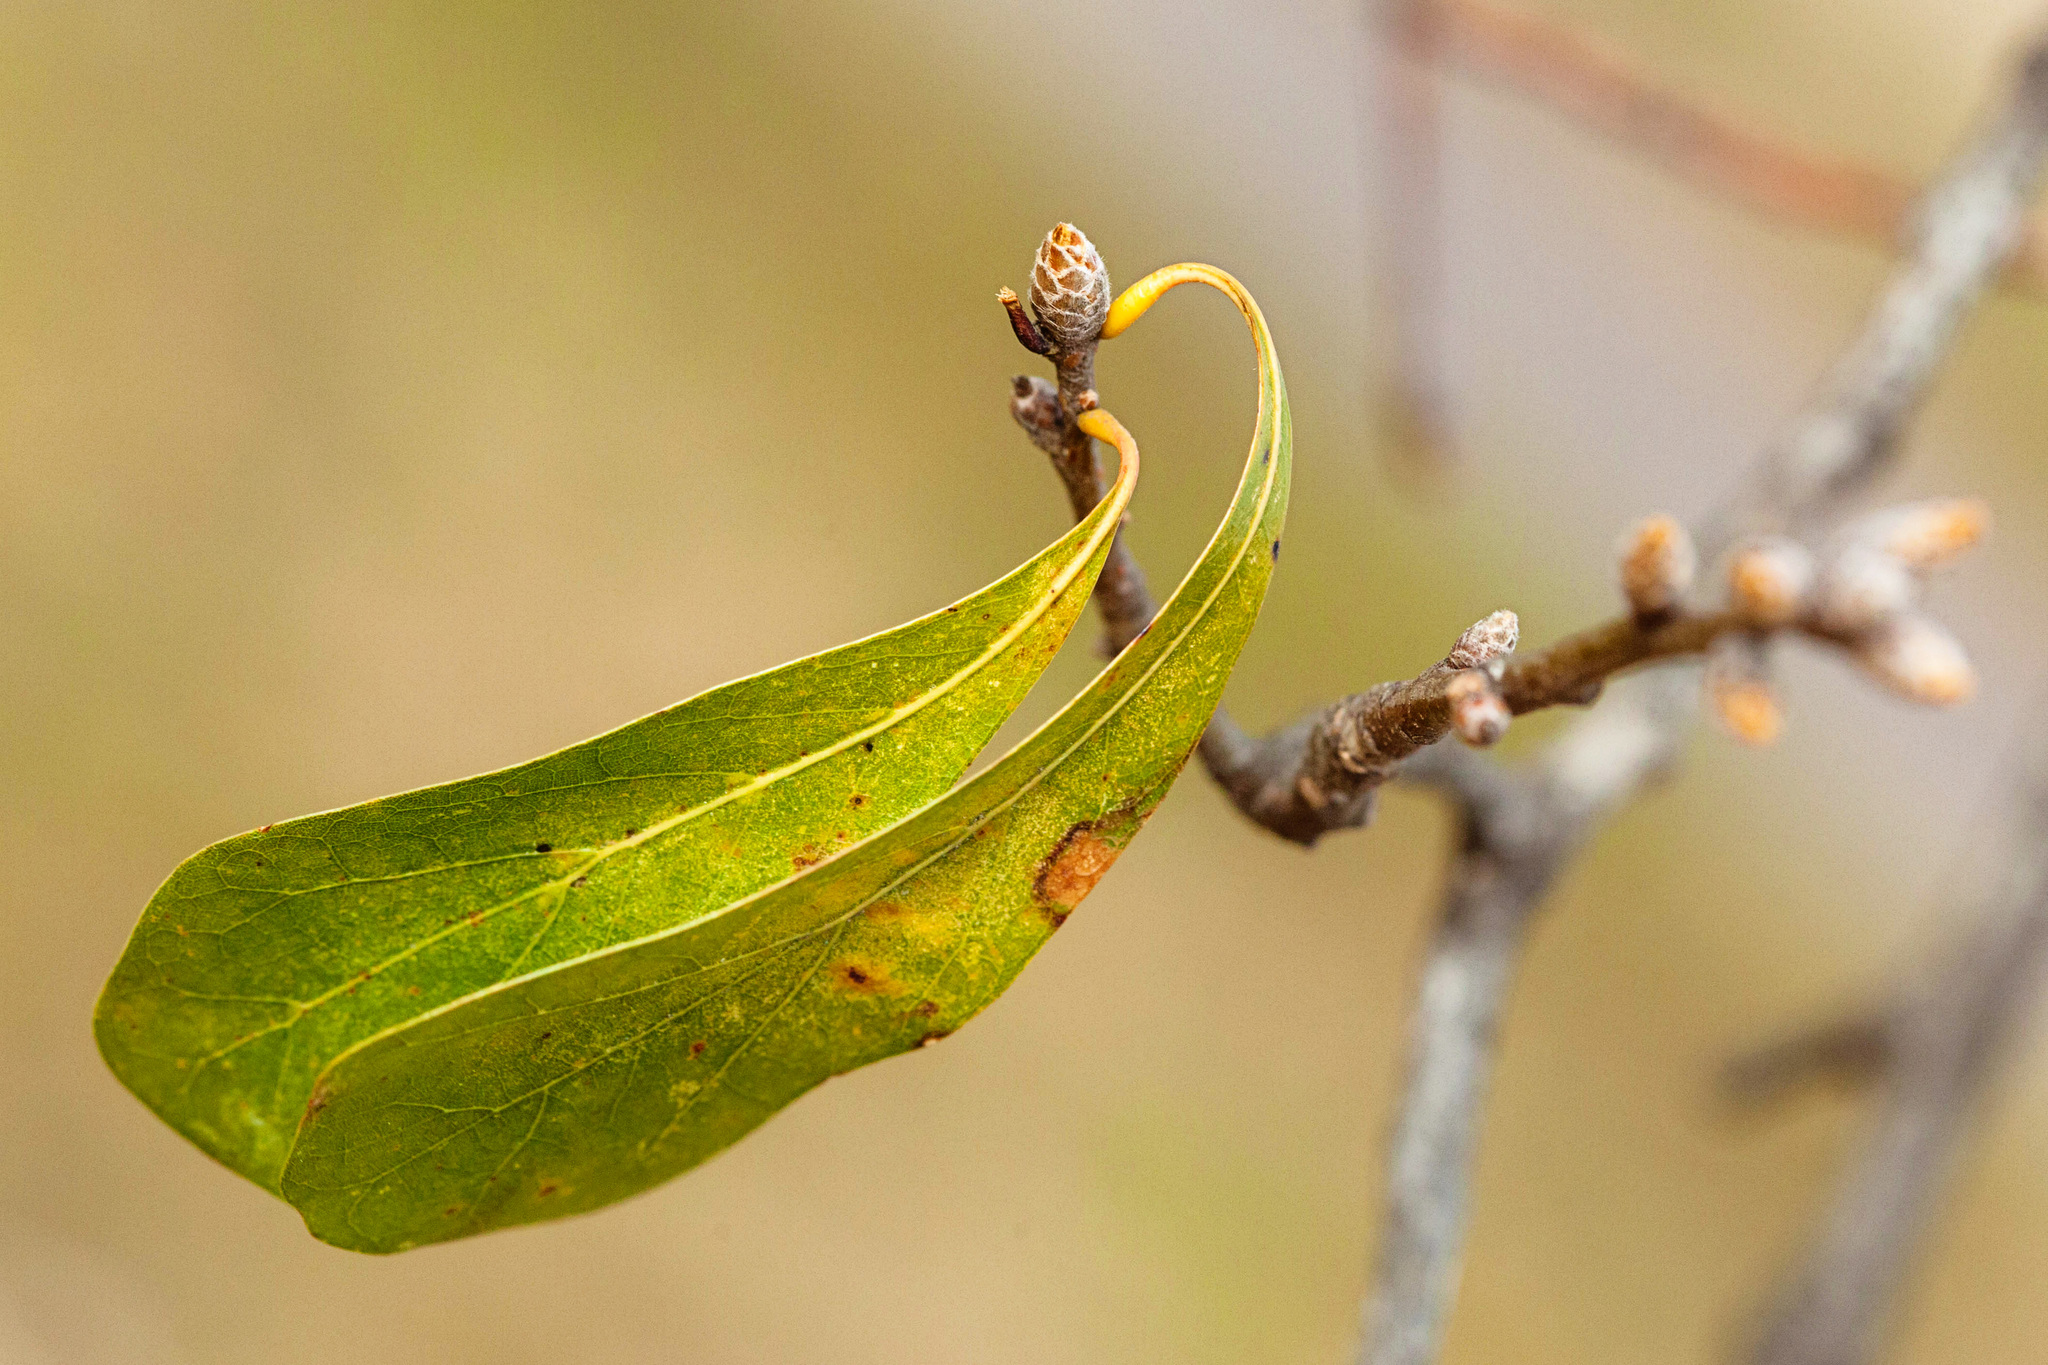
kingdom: Plantae
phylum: Tracheophyta
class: Magnoliopsida
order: Fagales
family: Fagaceae
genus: Quercus
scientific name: Quercus nigra
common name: Water oak
